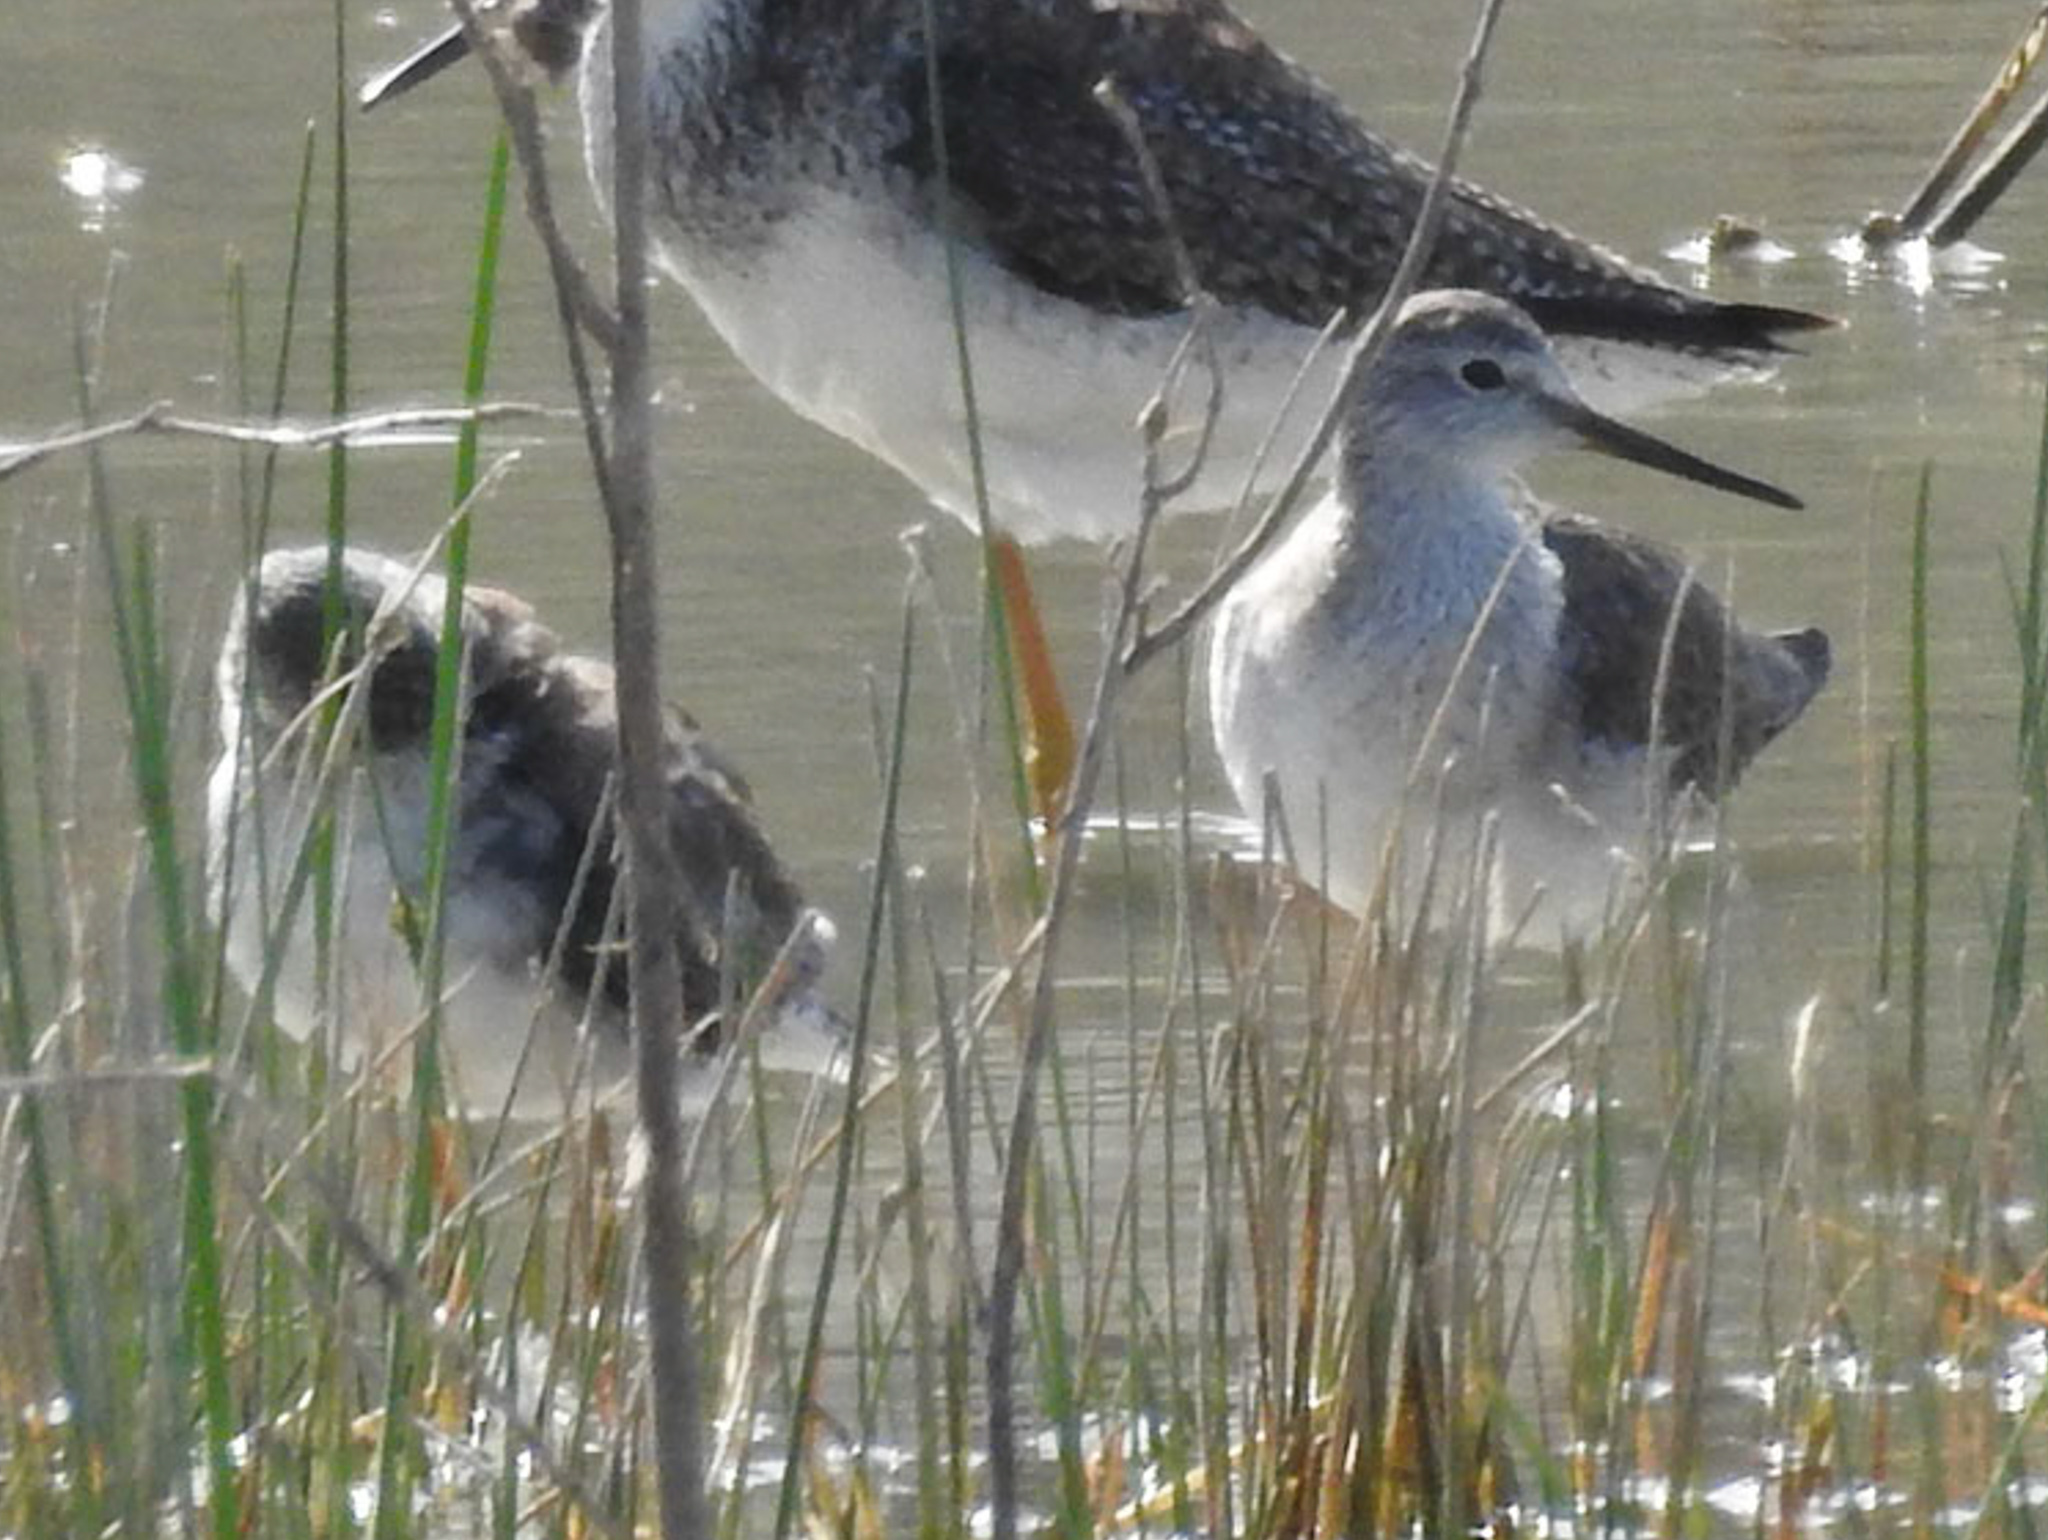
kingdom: Animalia
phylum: Chordata
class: Aves
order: Charadriiformes
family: Scolopacidae
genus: Tringa
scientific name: Tringa flavipes
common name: Lesser yellowlegs
